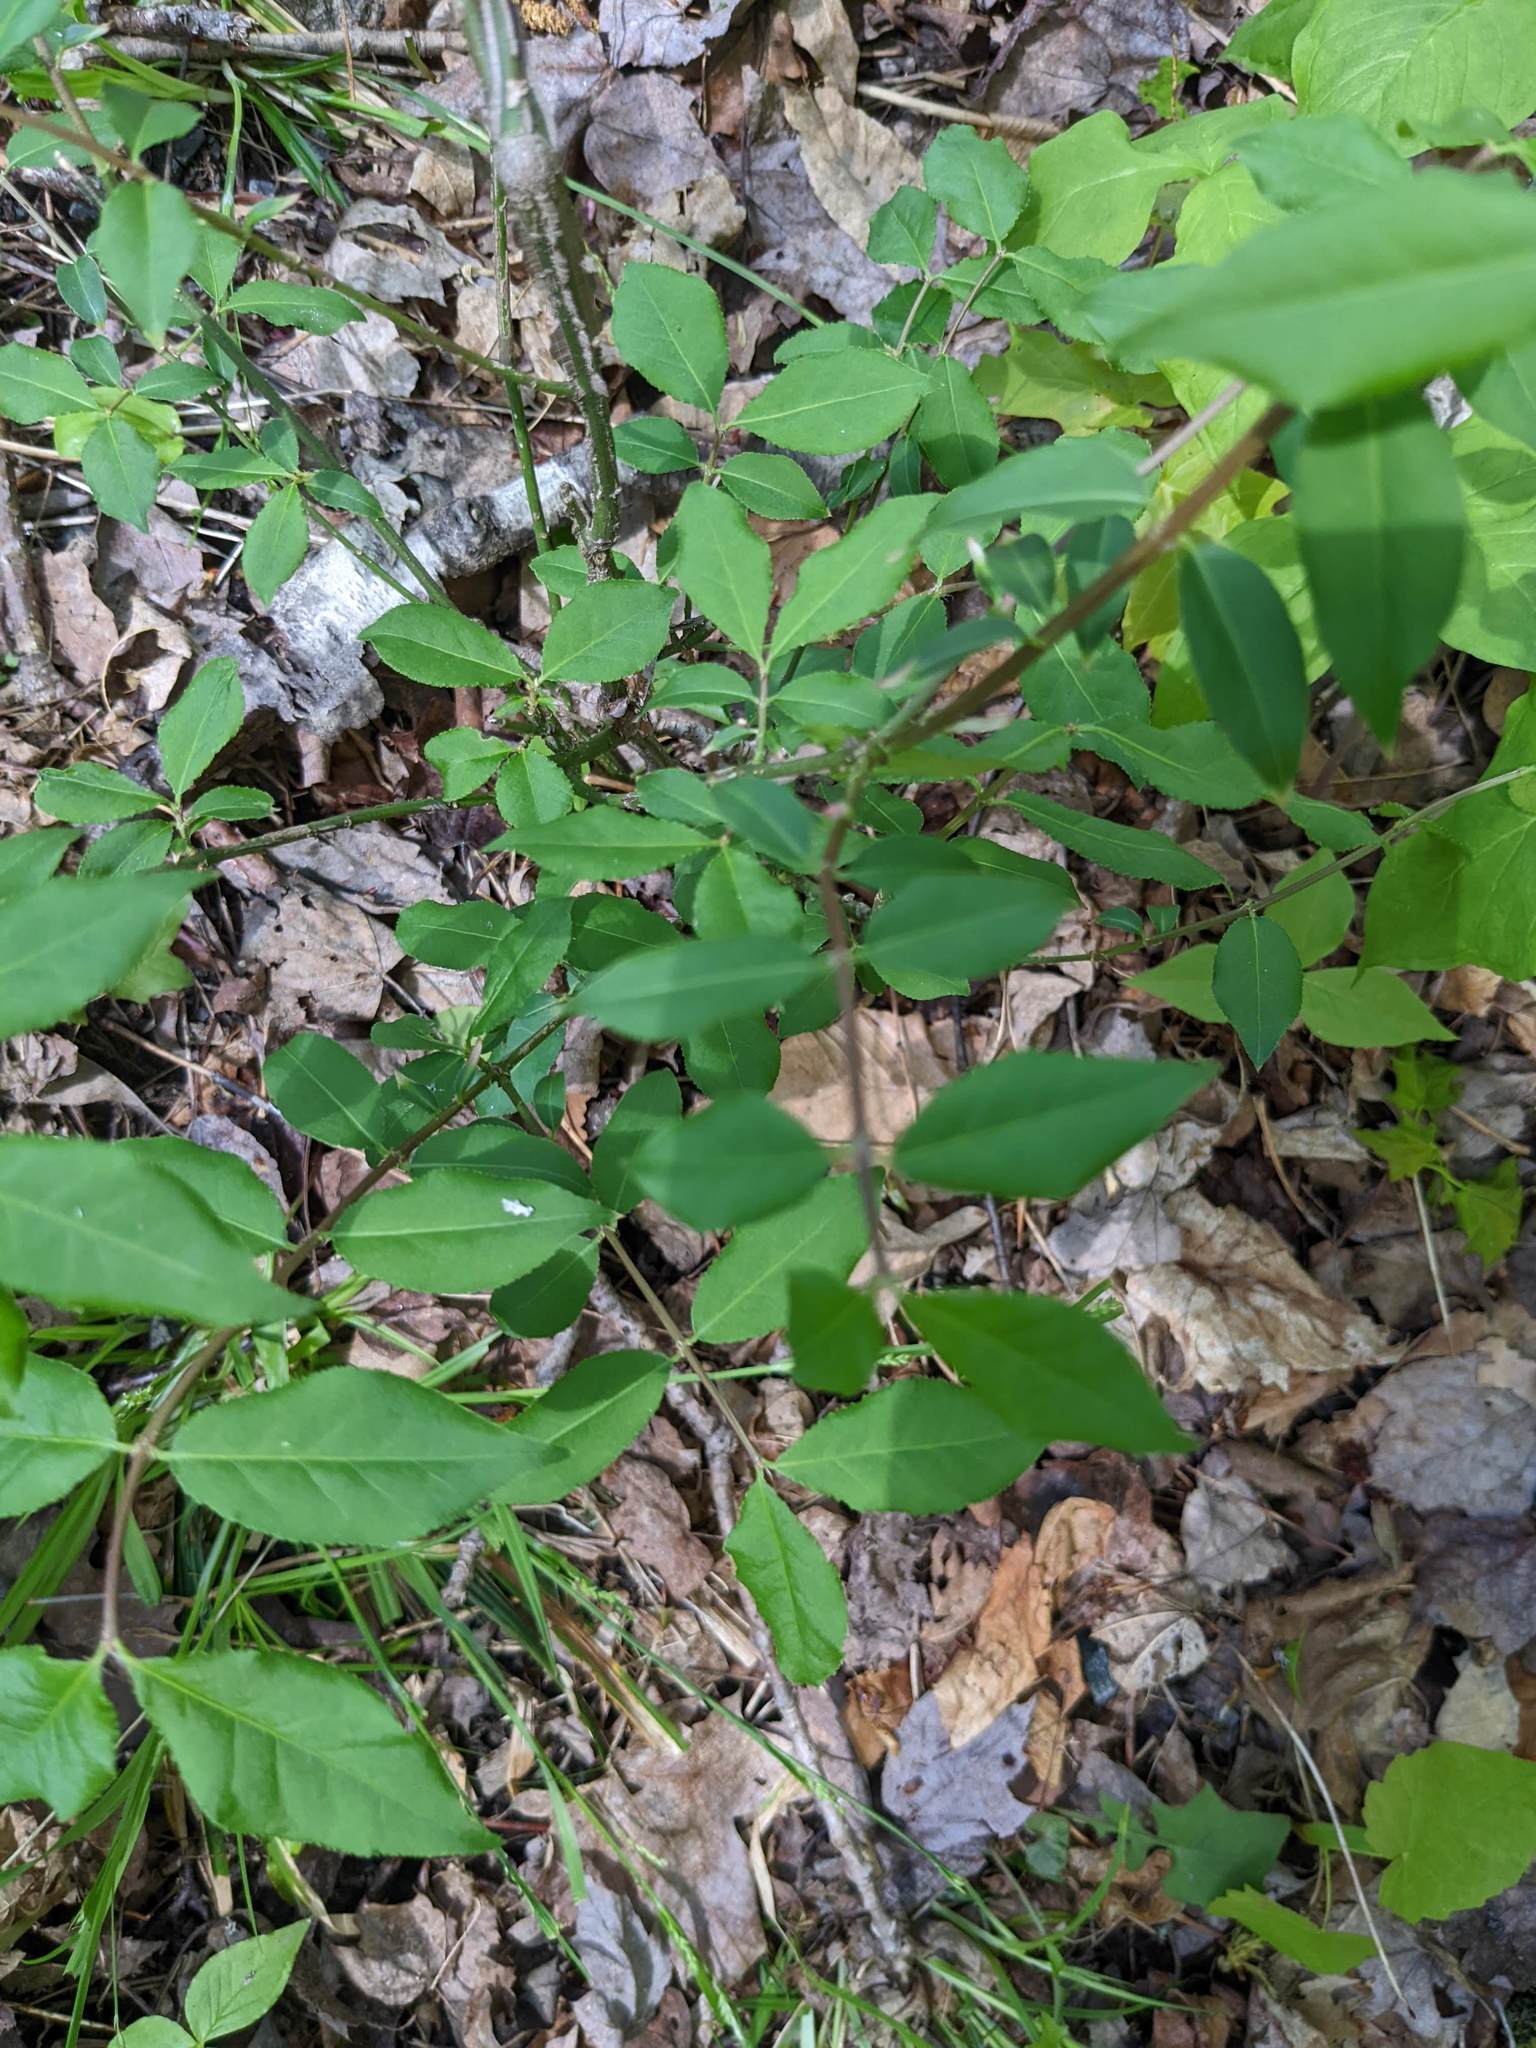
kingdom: Plantae
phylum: Tracheophyta
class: Magnoliopsida
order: Celastrales
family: Celastraceae
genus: Euonymus
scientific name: Euonymus alatus
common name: Winged euonymus
